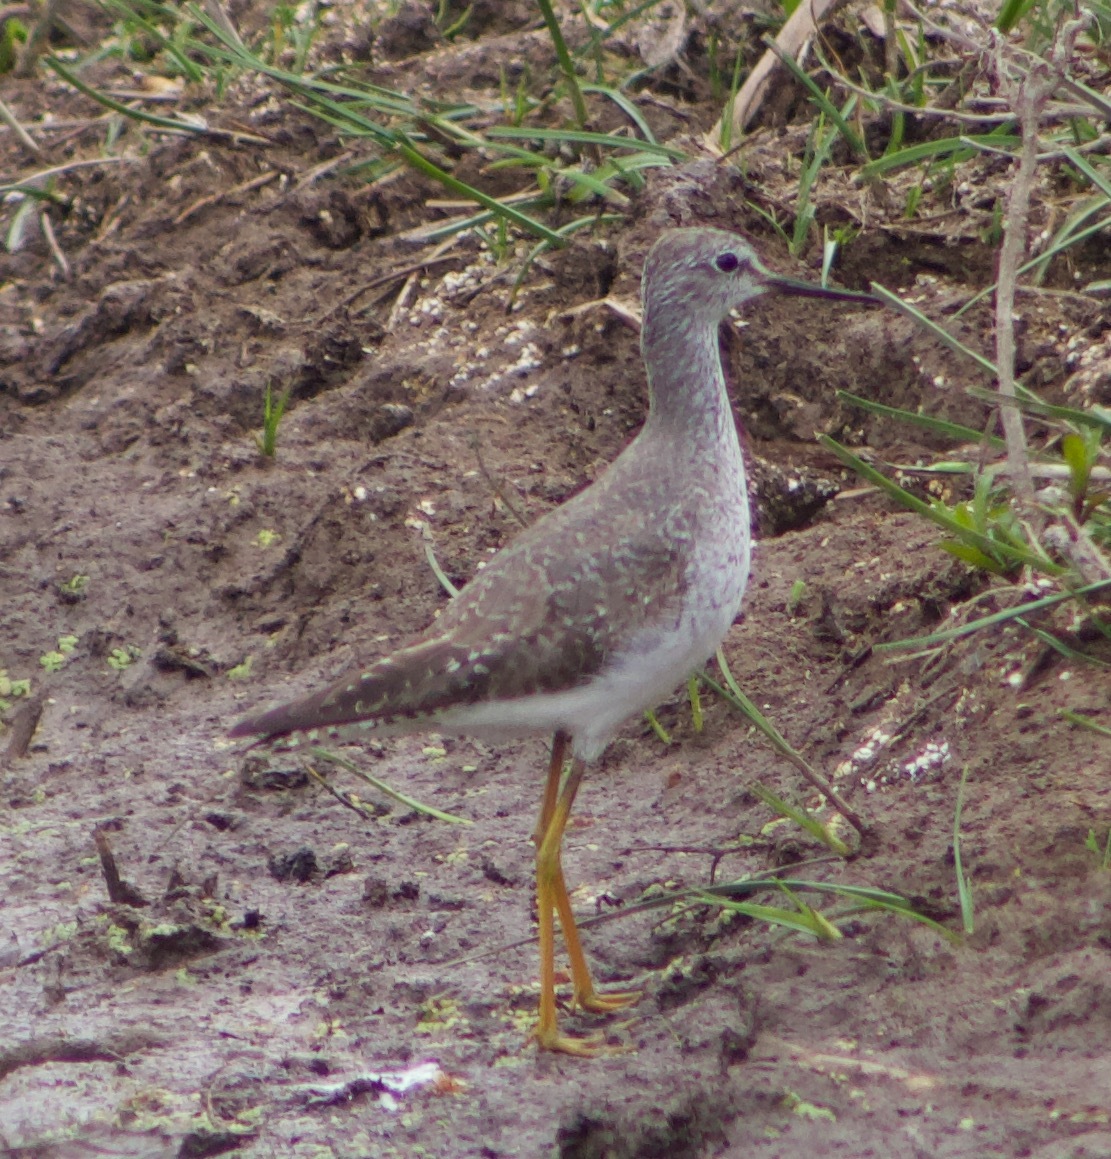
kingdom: Animalia
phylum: Chordata
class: Aves
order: Charadriiformes
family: Scolopacidae
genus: Tringa
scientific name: Tringa flavipes
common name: Lesser yellowlegs
